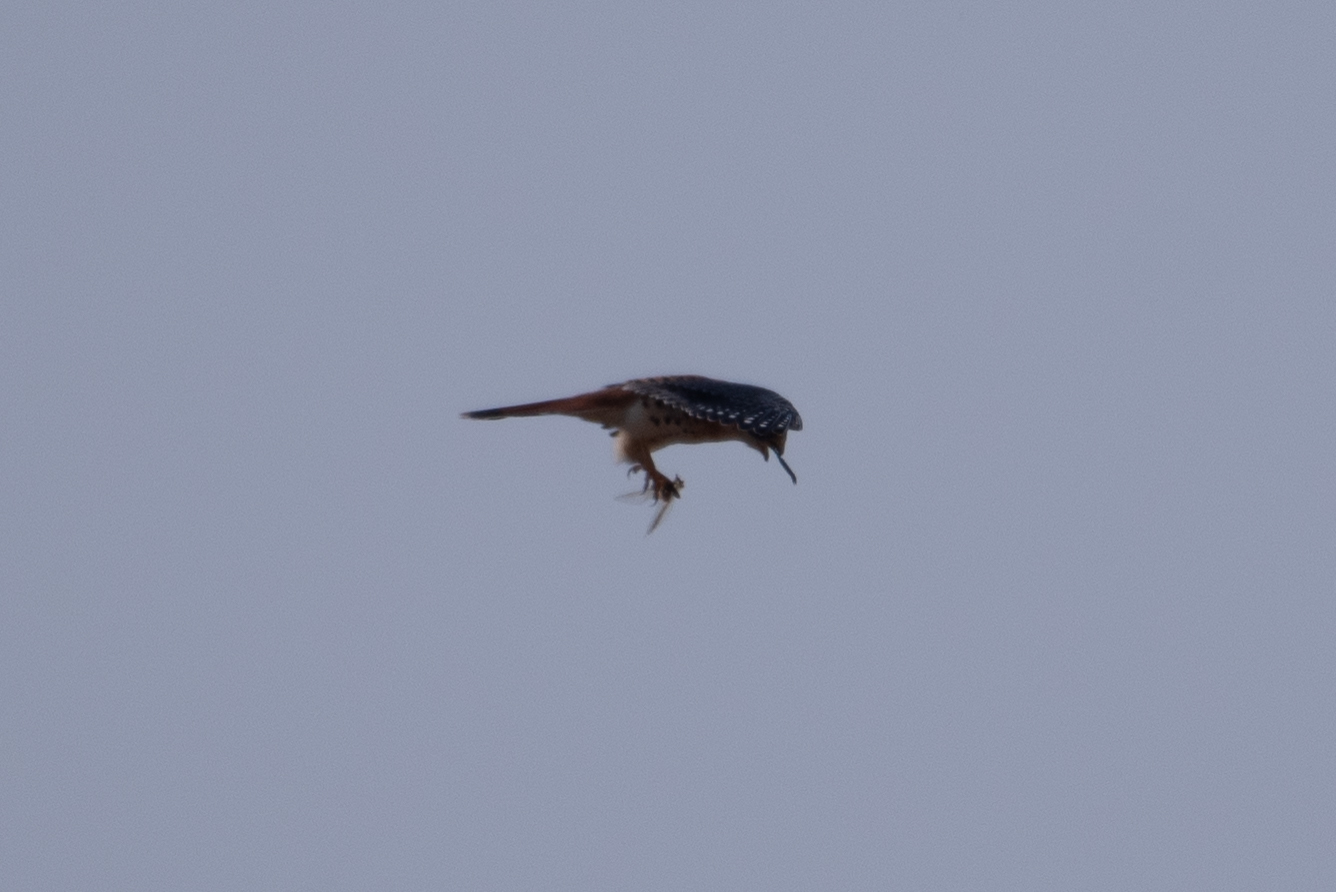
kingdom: Animalia
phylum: Chordata
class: Aves
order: Falconiformes
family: Falconidae
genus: Falco
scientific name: Falco sparverius
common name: American kestrel
